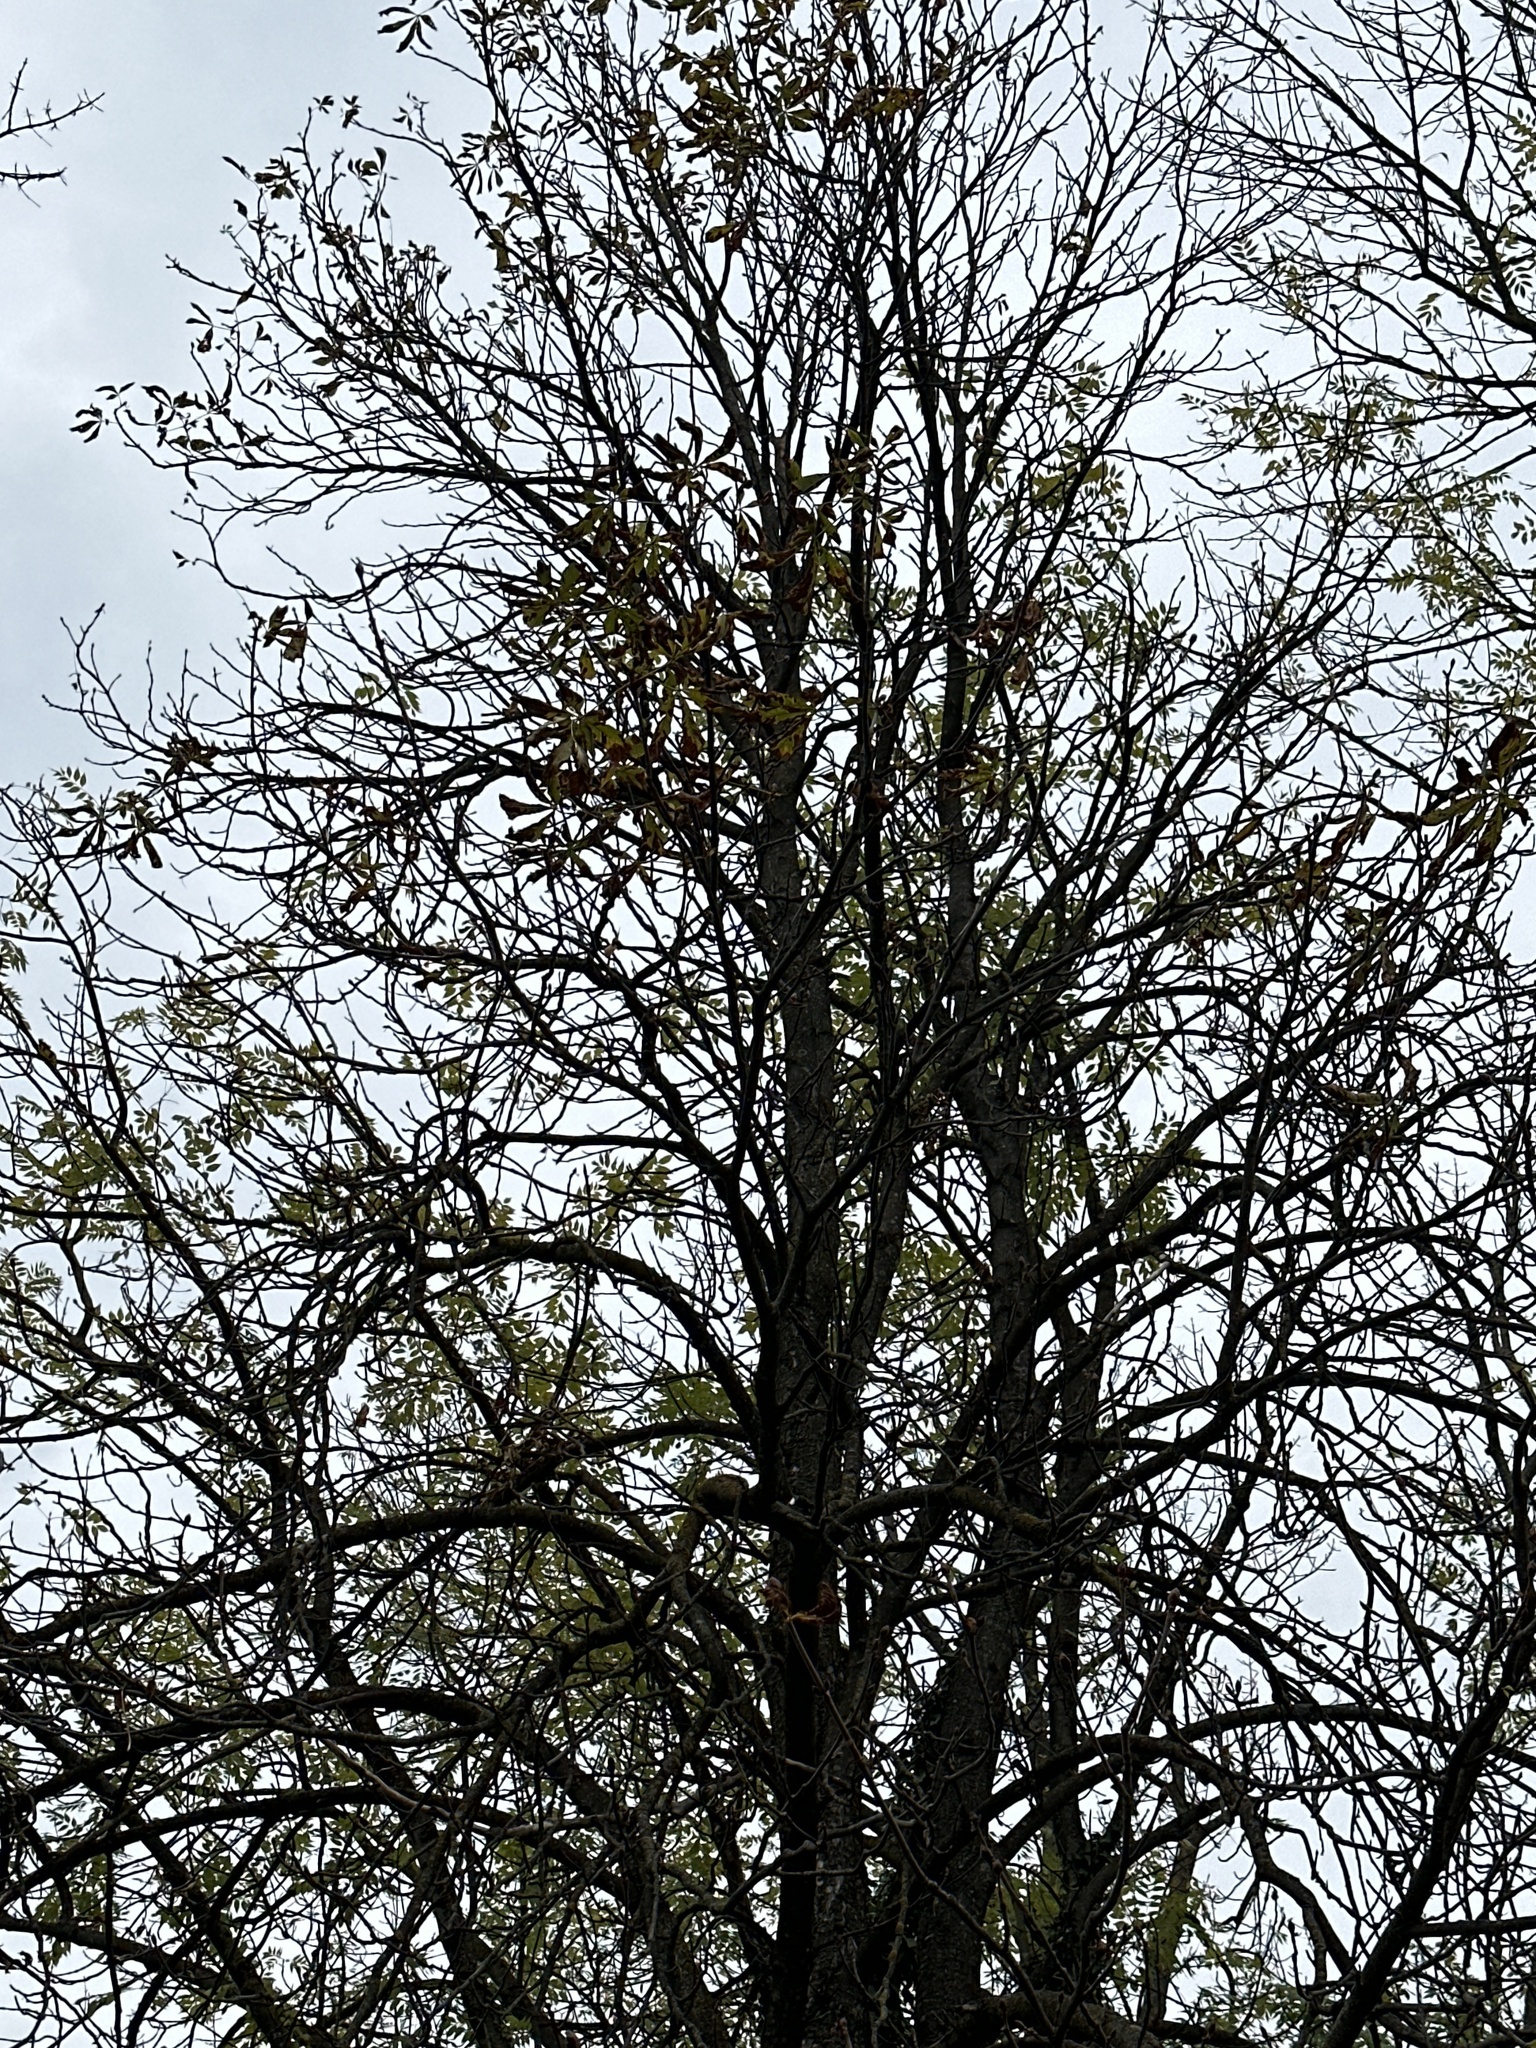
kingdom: Plantae
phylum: Tracheophyta
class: Magnoliopsida
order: Sapindales
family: Sapindaceae
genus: Aesculus
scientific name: Aesculus hippocastanum
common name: Horse-chestnut
